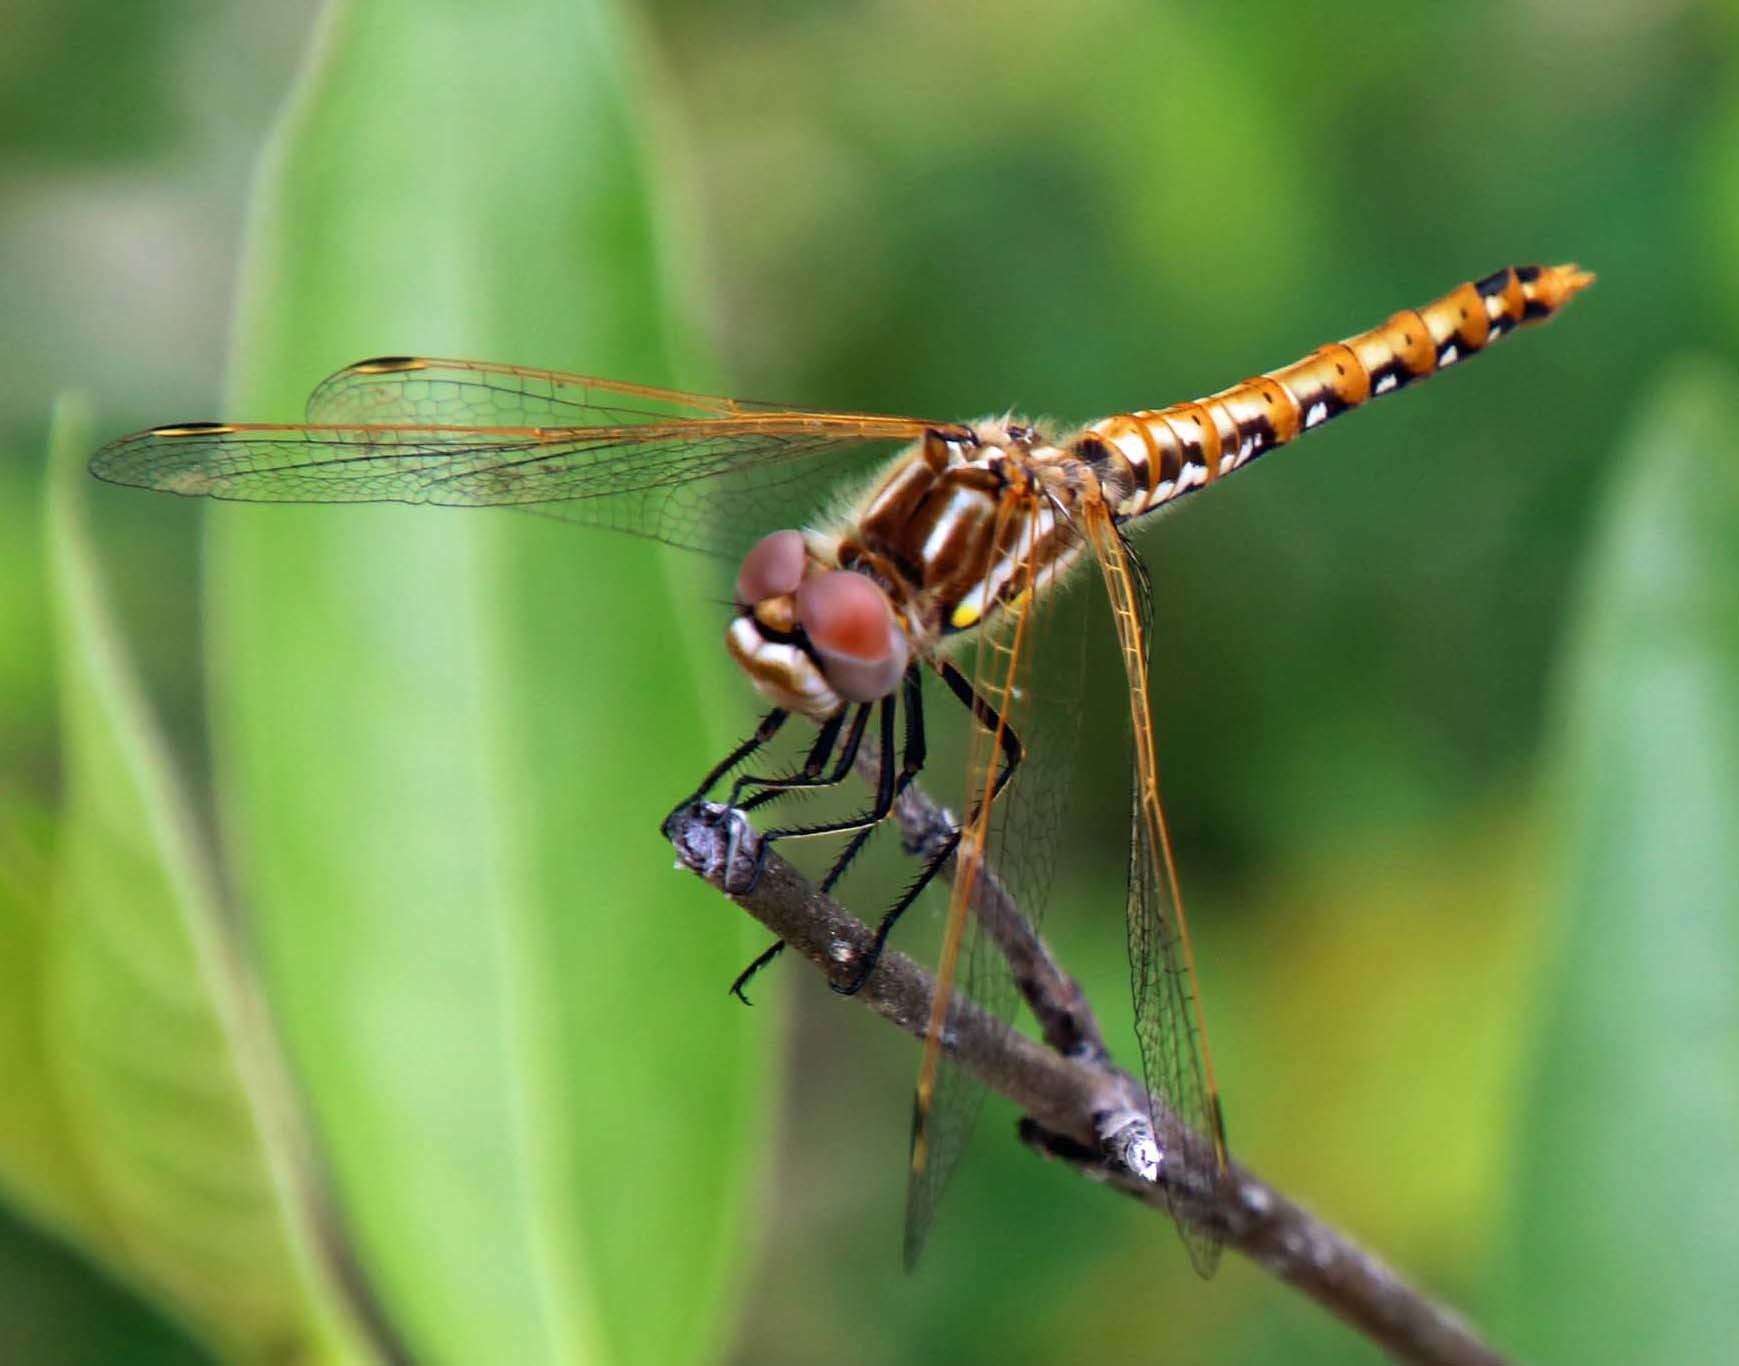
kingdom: Animalia
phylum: Arthropoda
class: Insecta
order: Odonata
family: Libellulidae
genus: Sympetrum
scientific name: Sympetrum corruptum
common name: Variegated meadowhawk
